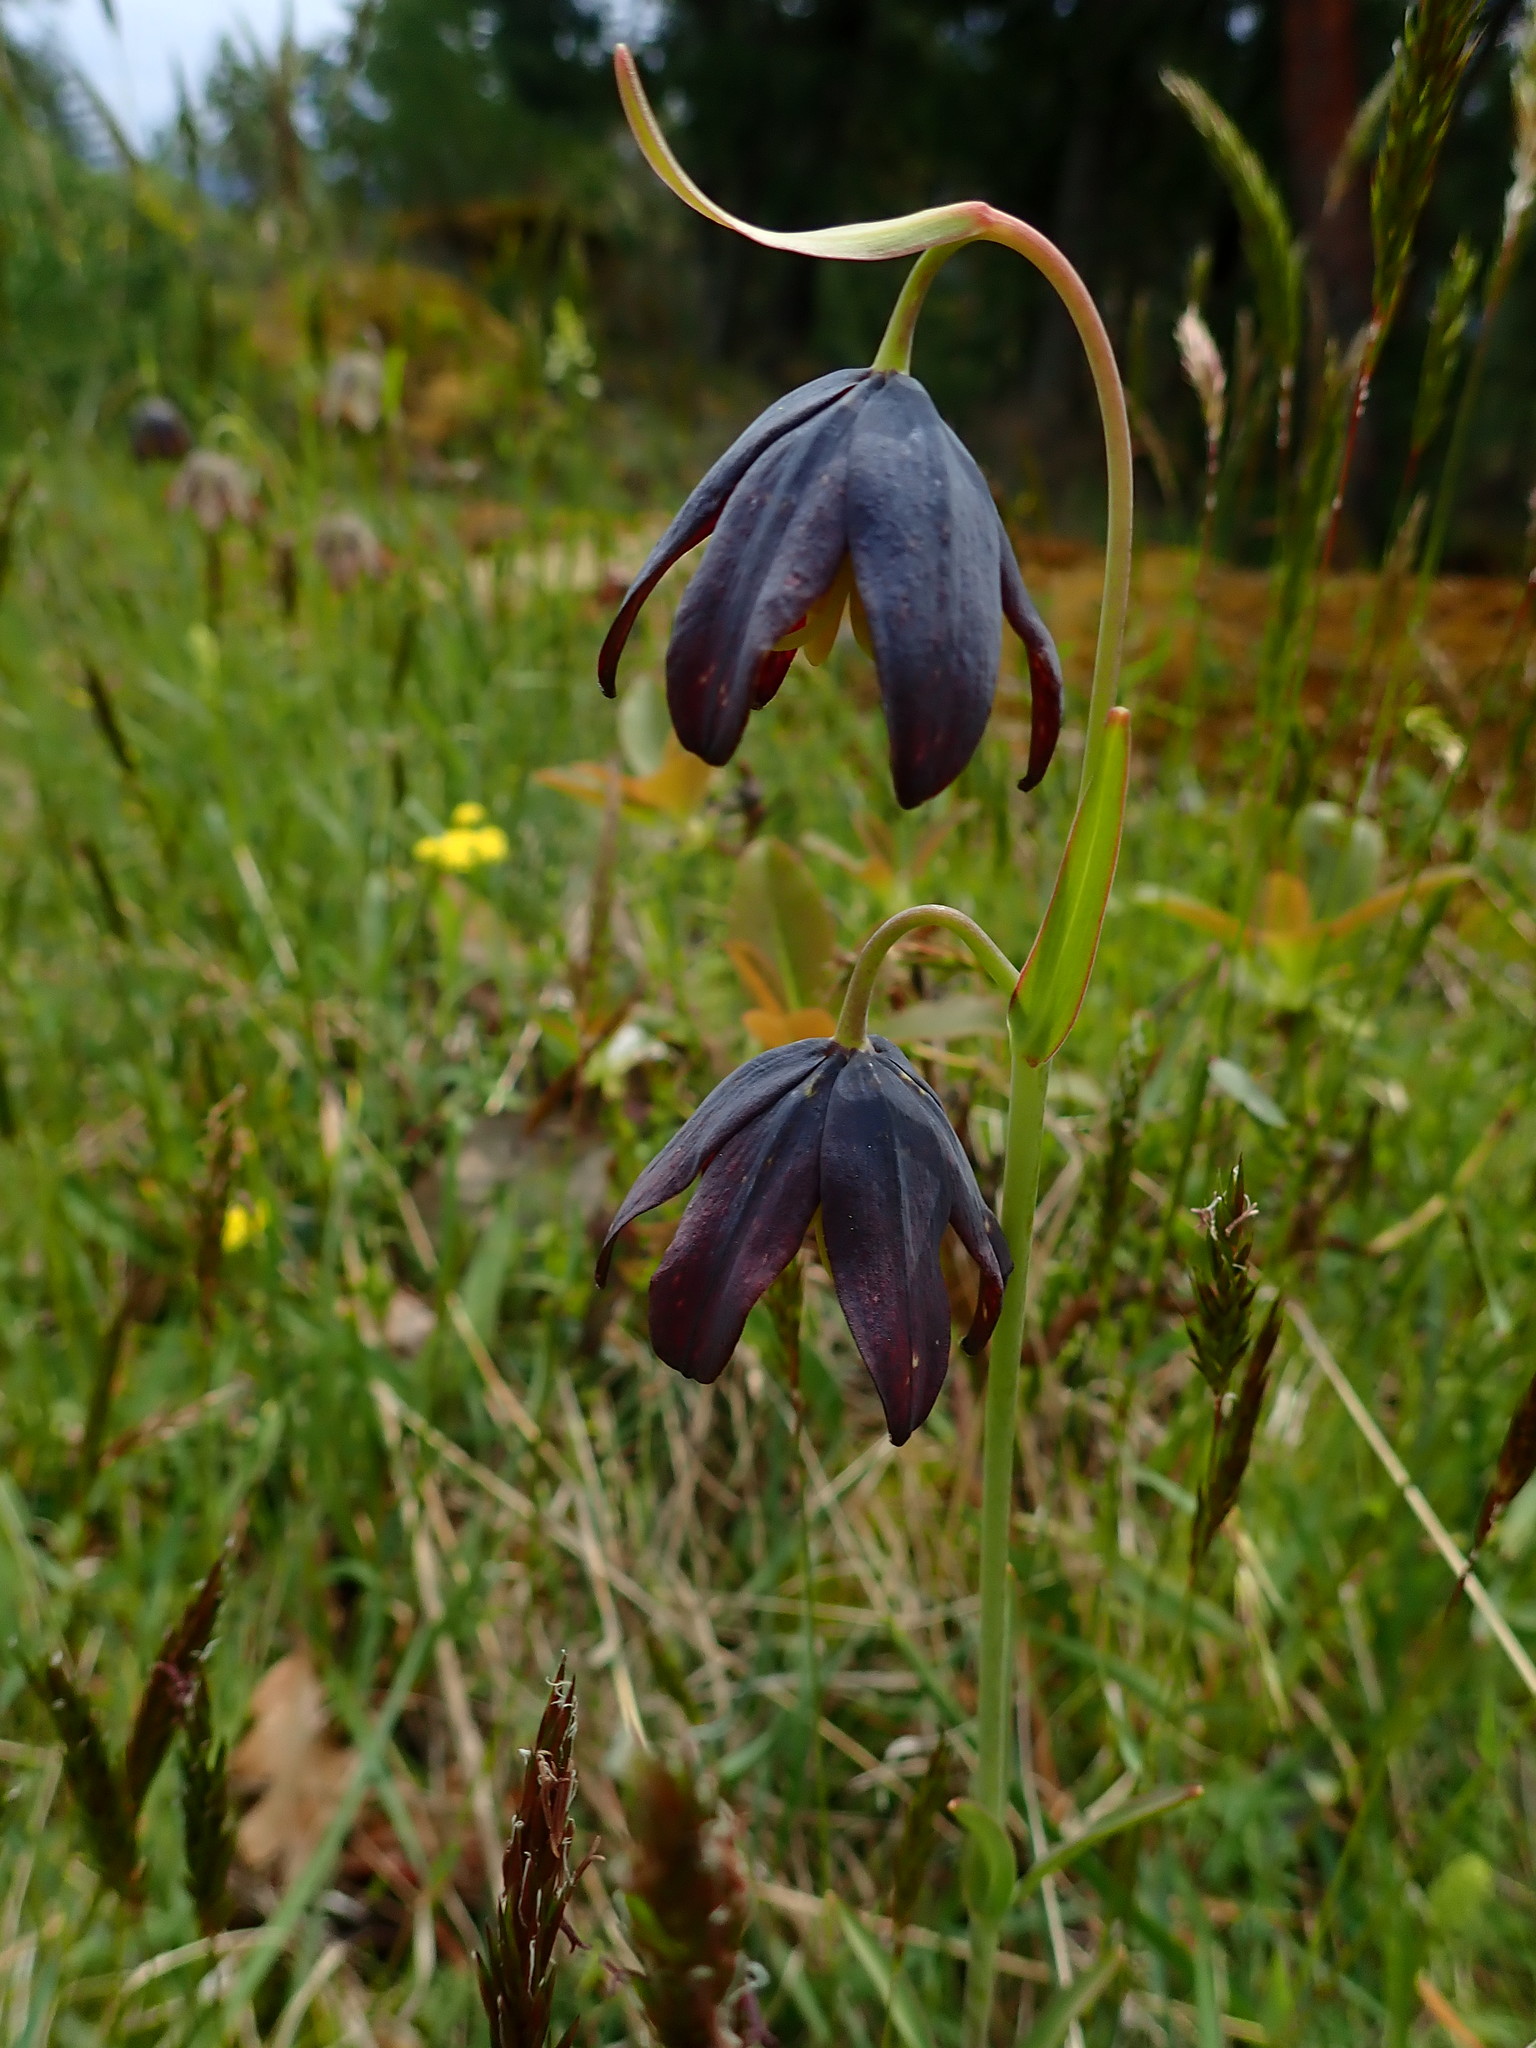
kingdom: Plantae
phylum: Tracheophyta
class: Liliopsida
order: Liliales
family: Liliaceae
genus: Fritillaria
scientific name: Fritillaria affinis
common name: Ojai fritillary
